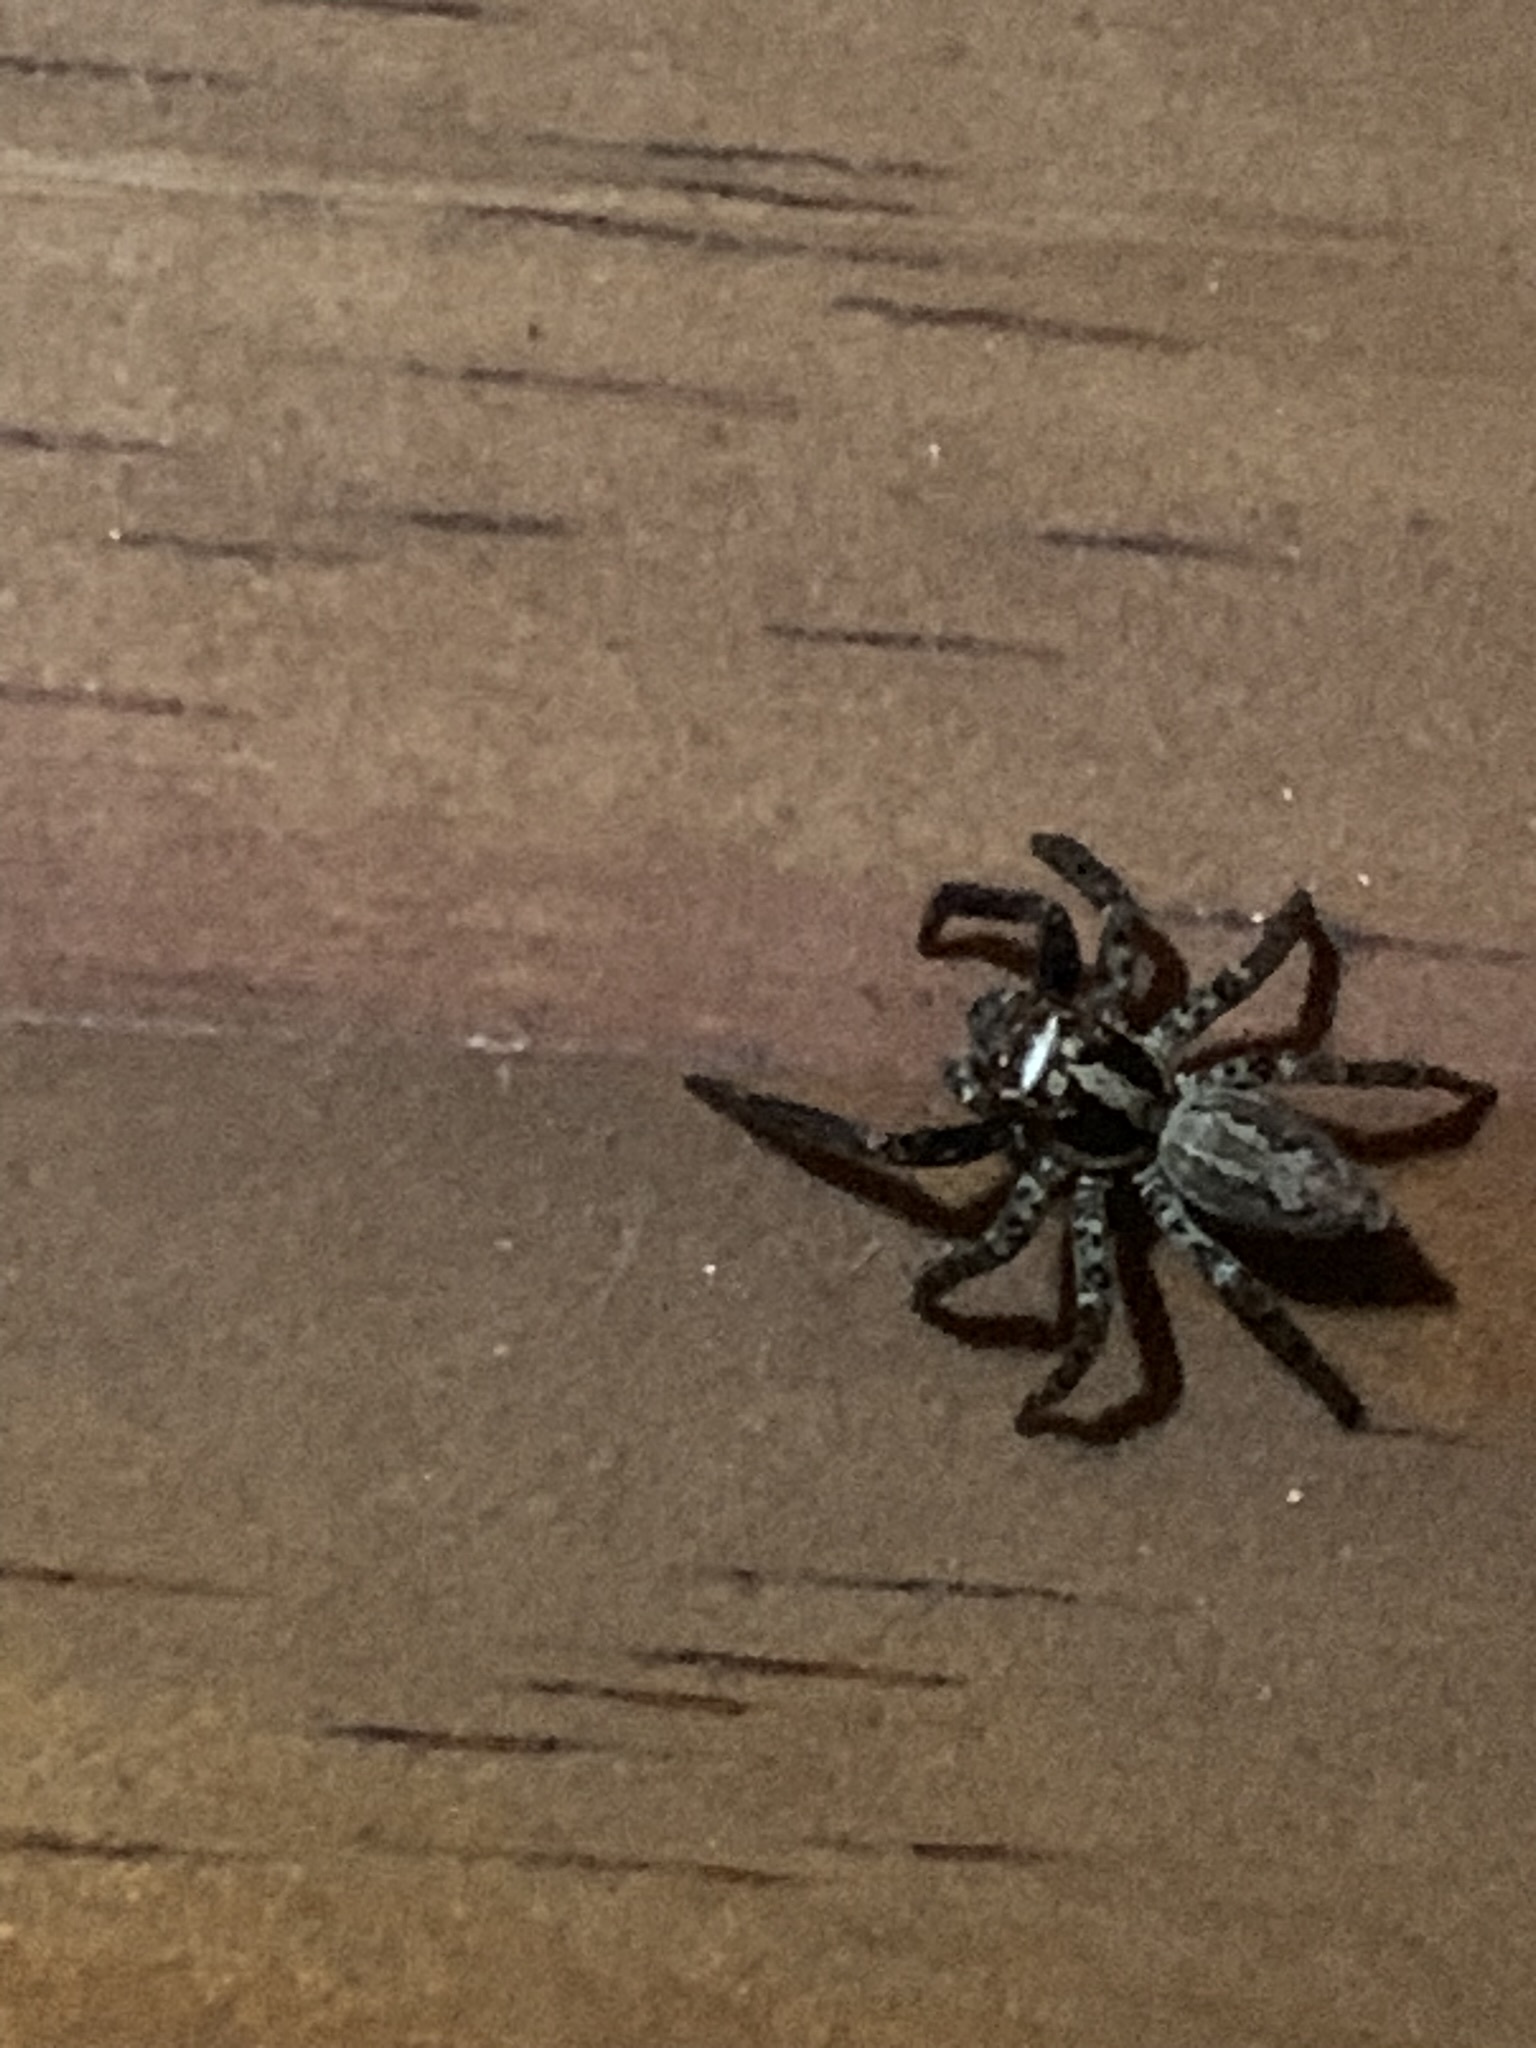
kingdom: Animalia
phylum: Arthropoda
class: Arachnida
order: Araneae
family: Salticidae
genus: Asaphobelis
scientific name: Asaphobelis physonychus
